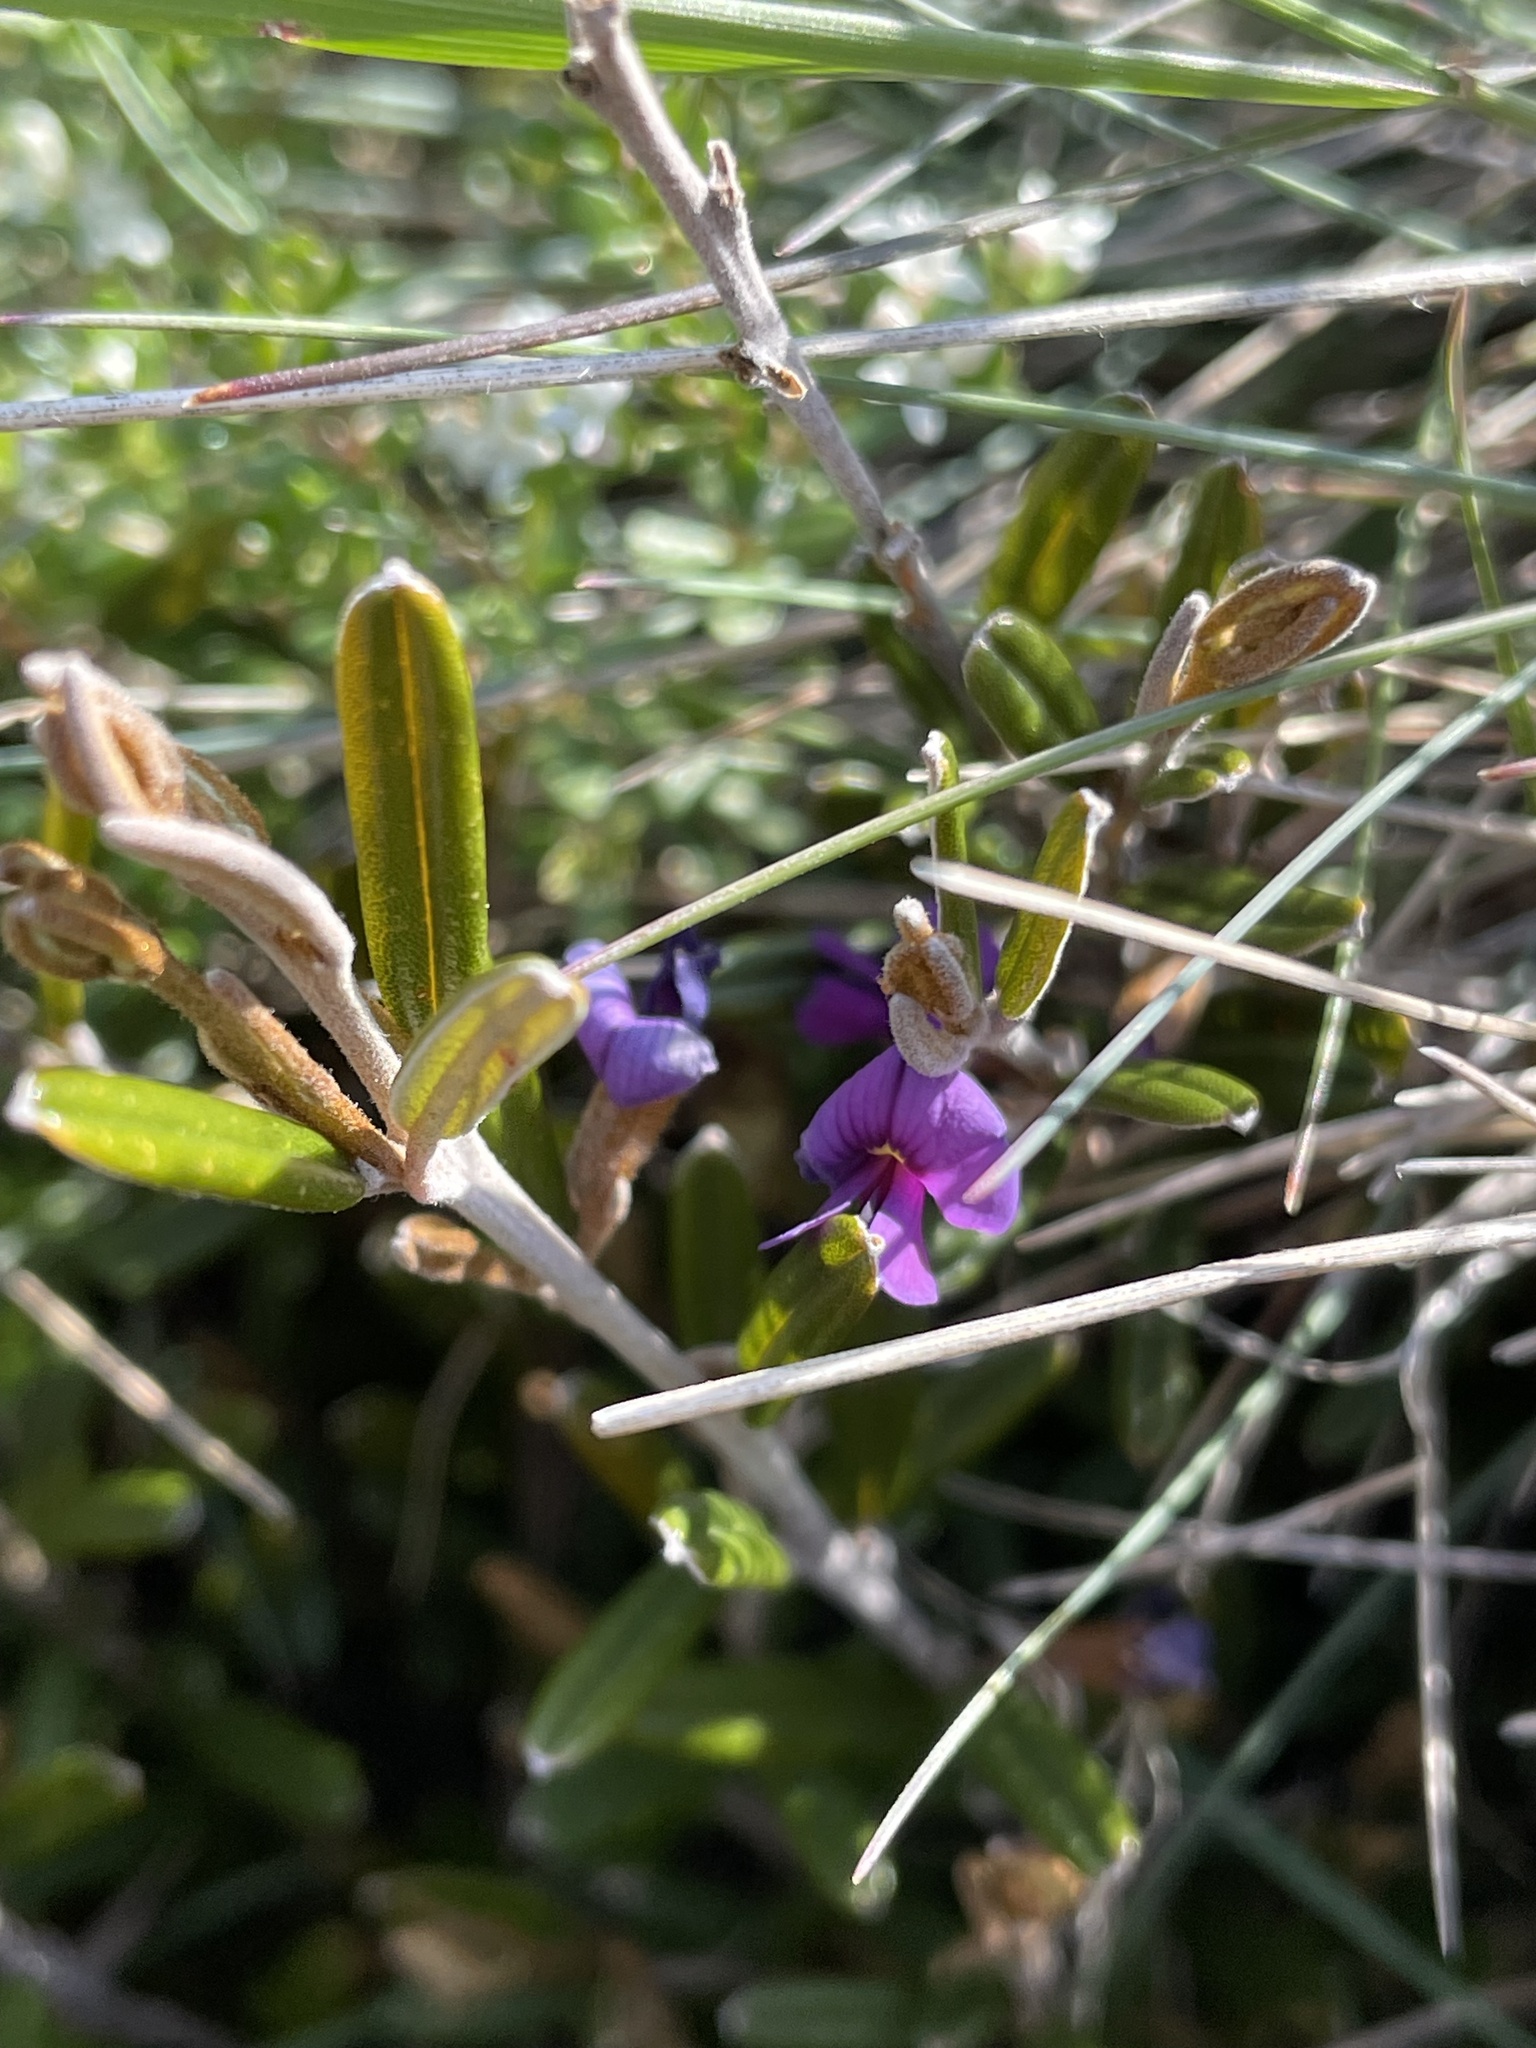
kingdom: Plantae
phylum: Tracheophyta
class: Magnoliopsida
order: Fabales
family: Fabaceae
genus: Hovea
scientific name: Hovea montana
